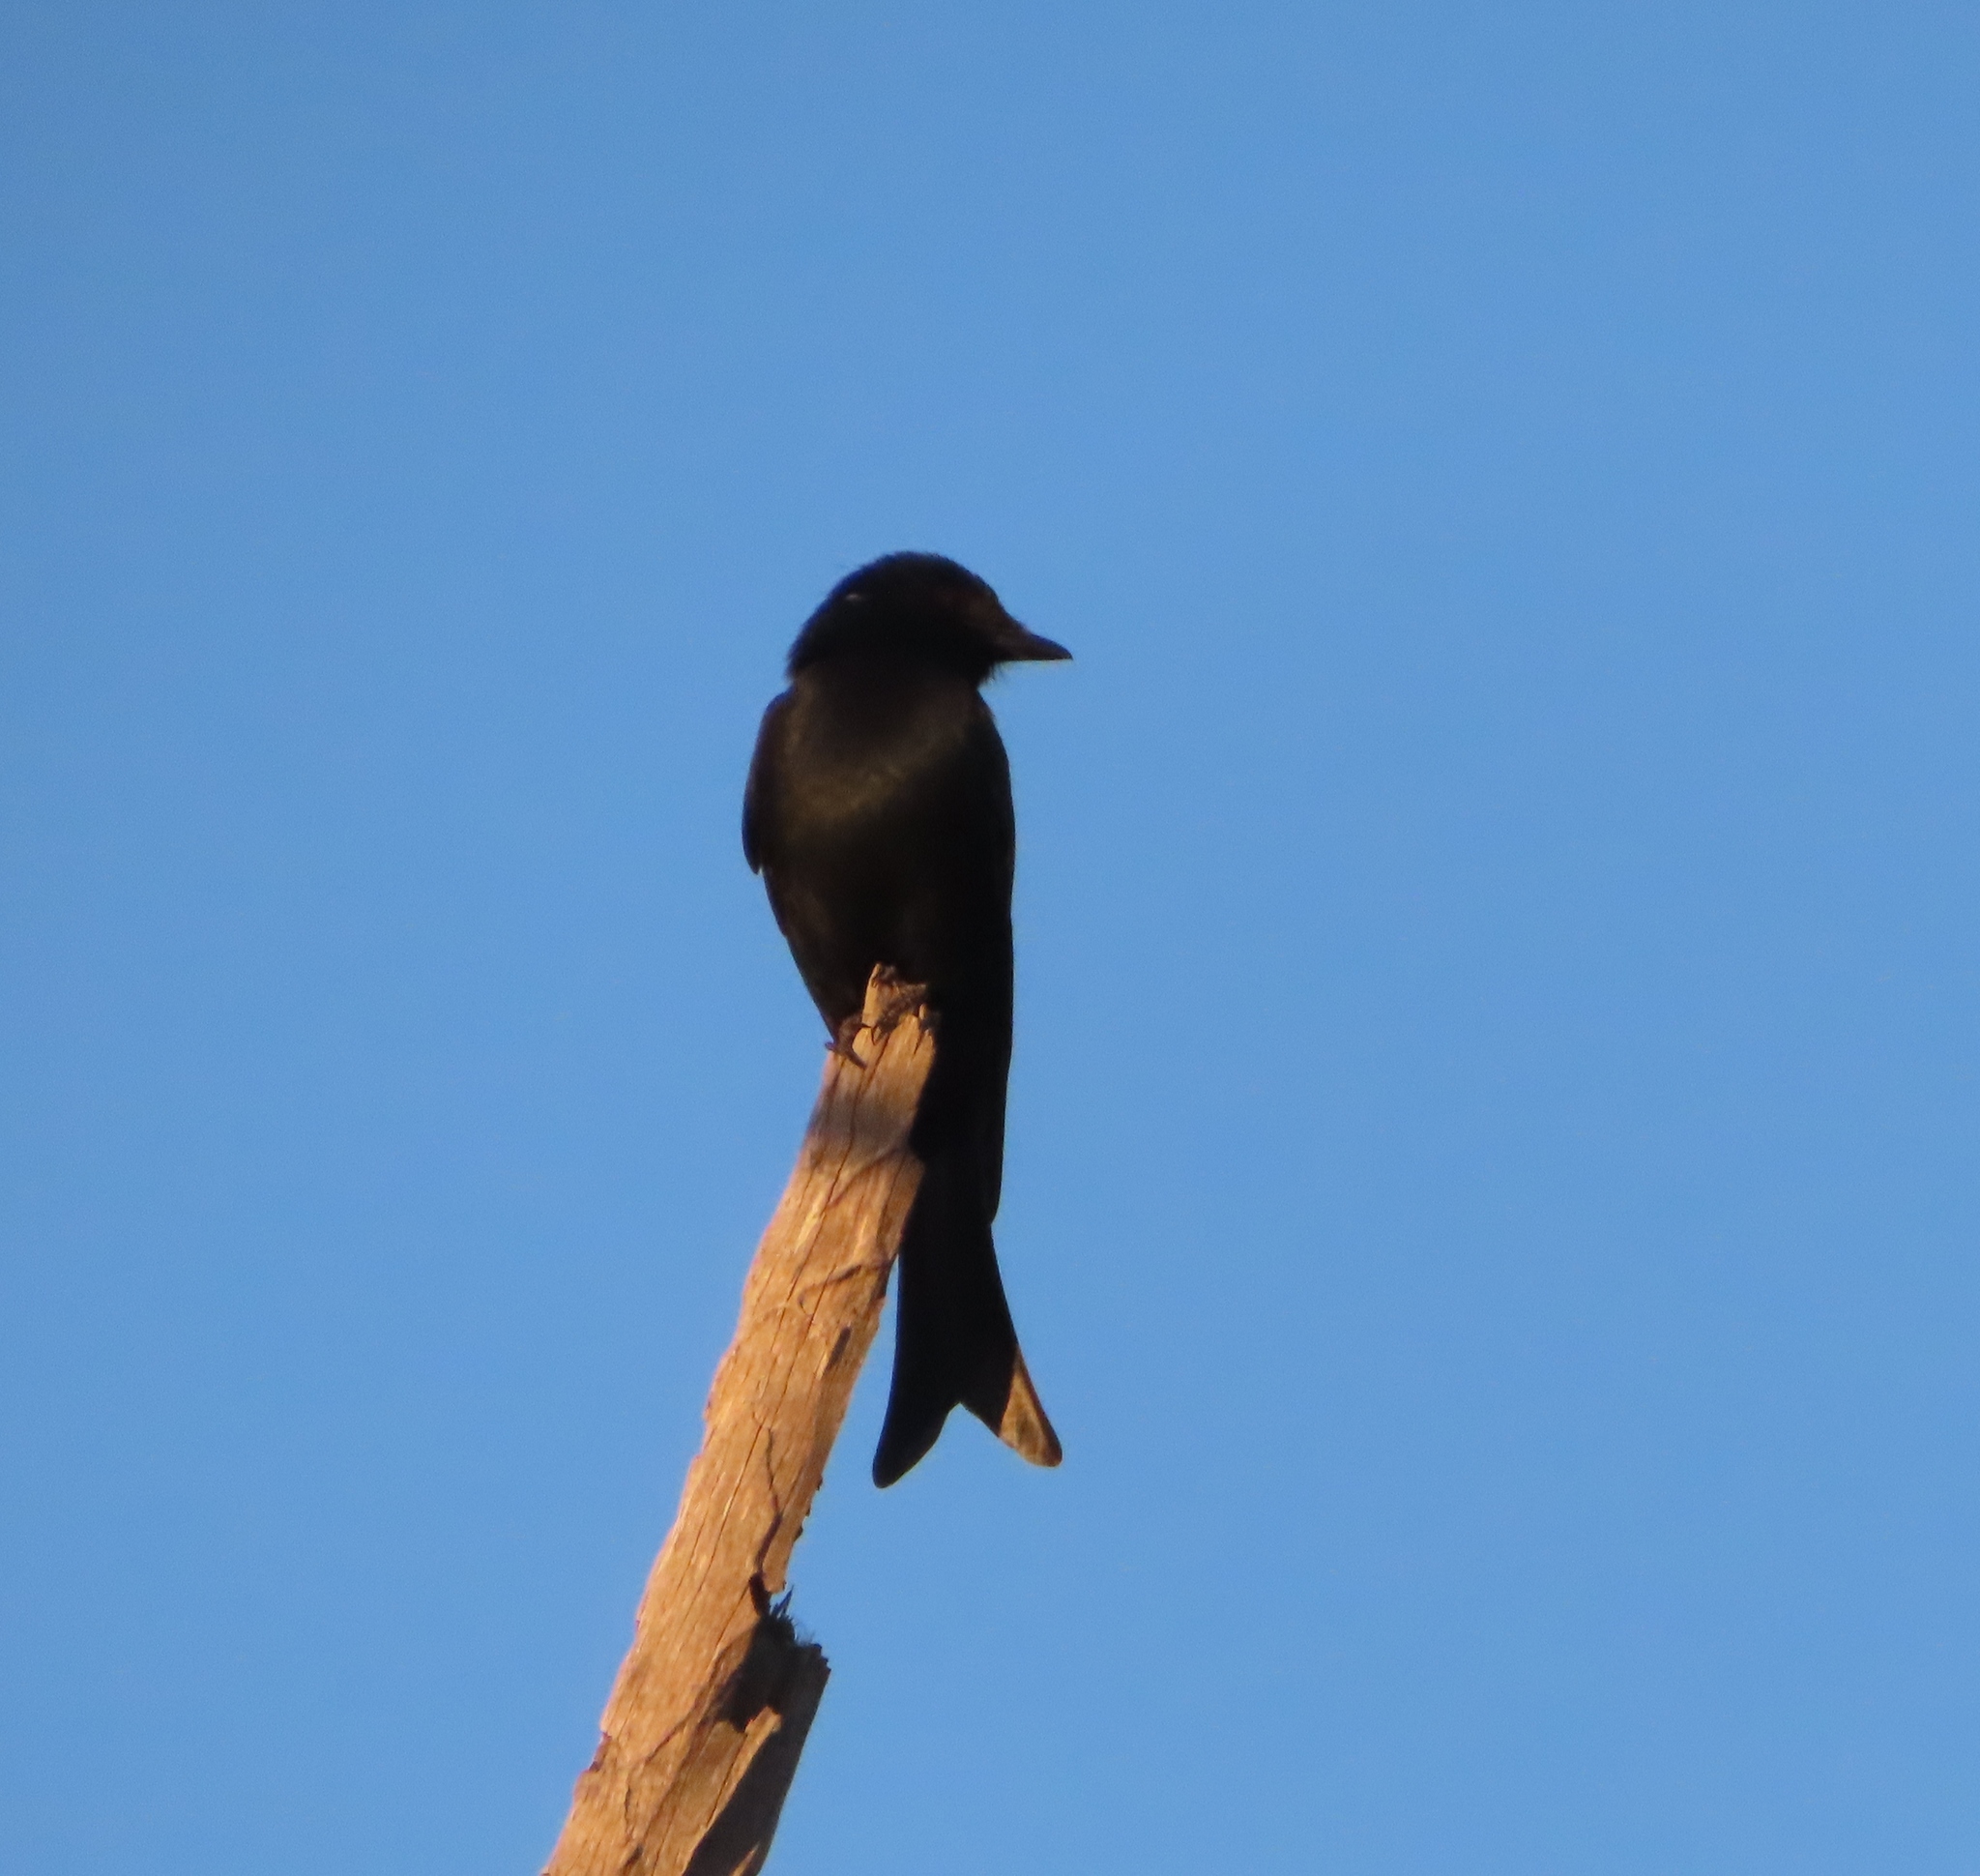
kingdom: Animalia
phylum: Chordata
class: Aves
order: Passeriformes
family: Dicruridae
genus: Dicrurus
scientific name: Dicrurus adsimilis
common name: Fork-tailed drongo
